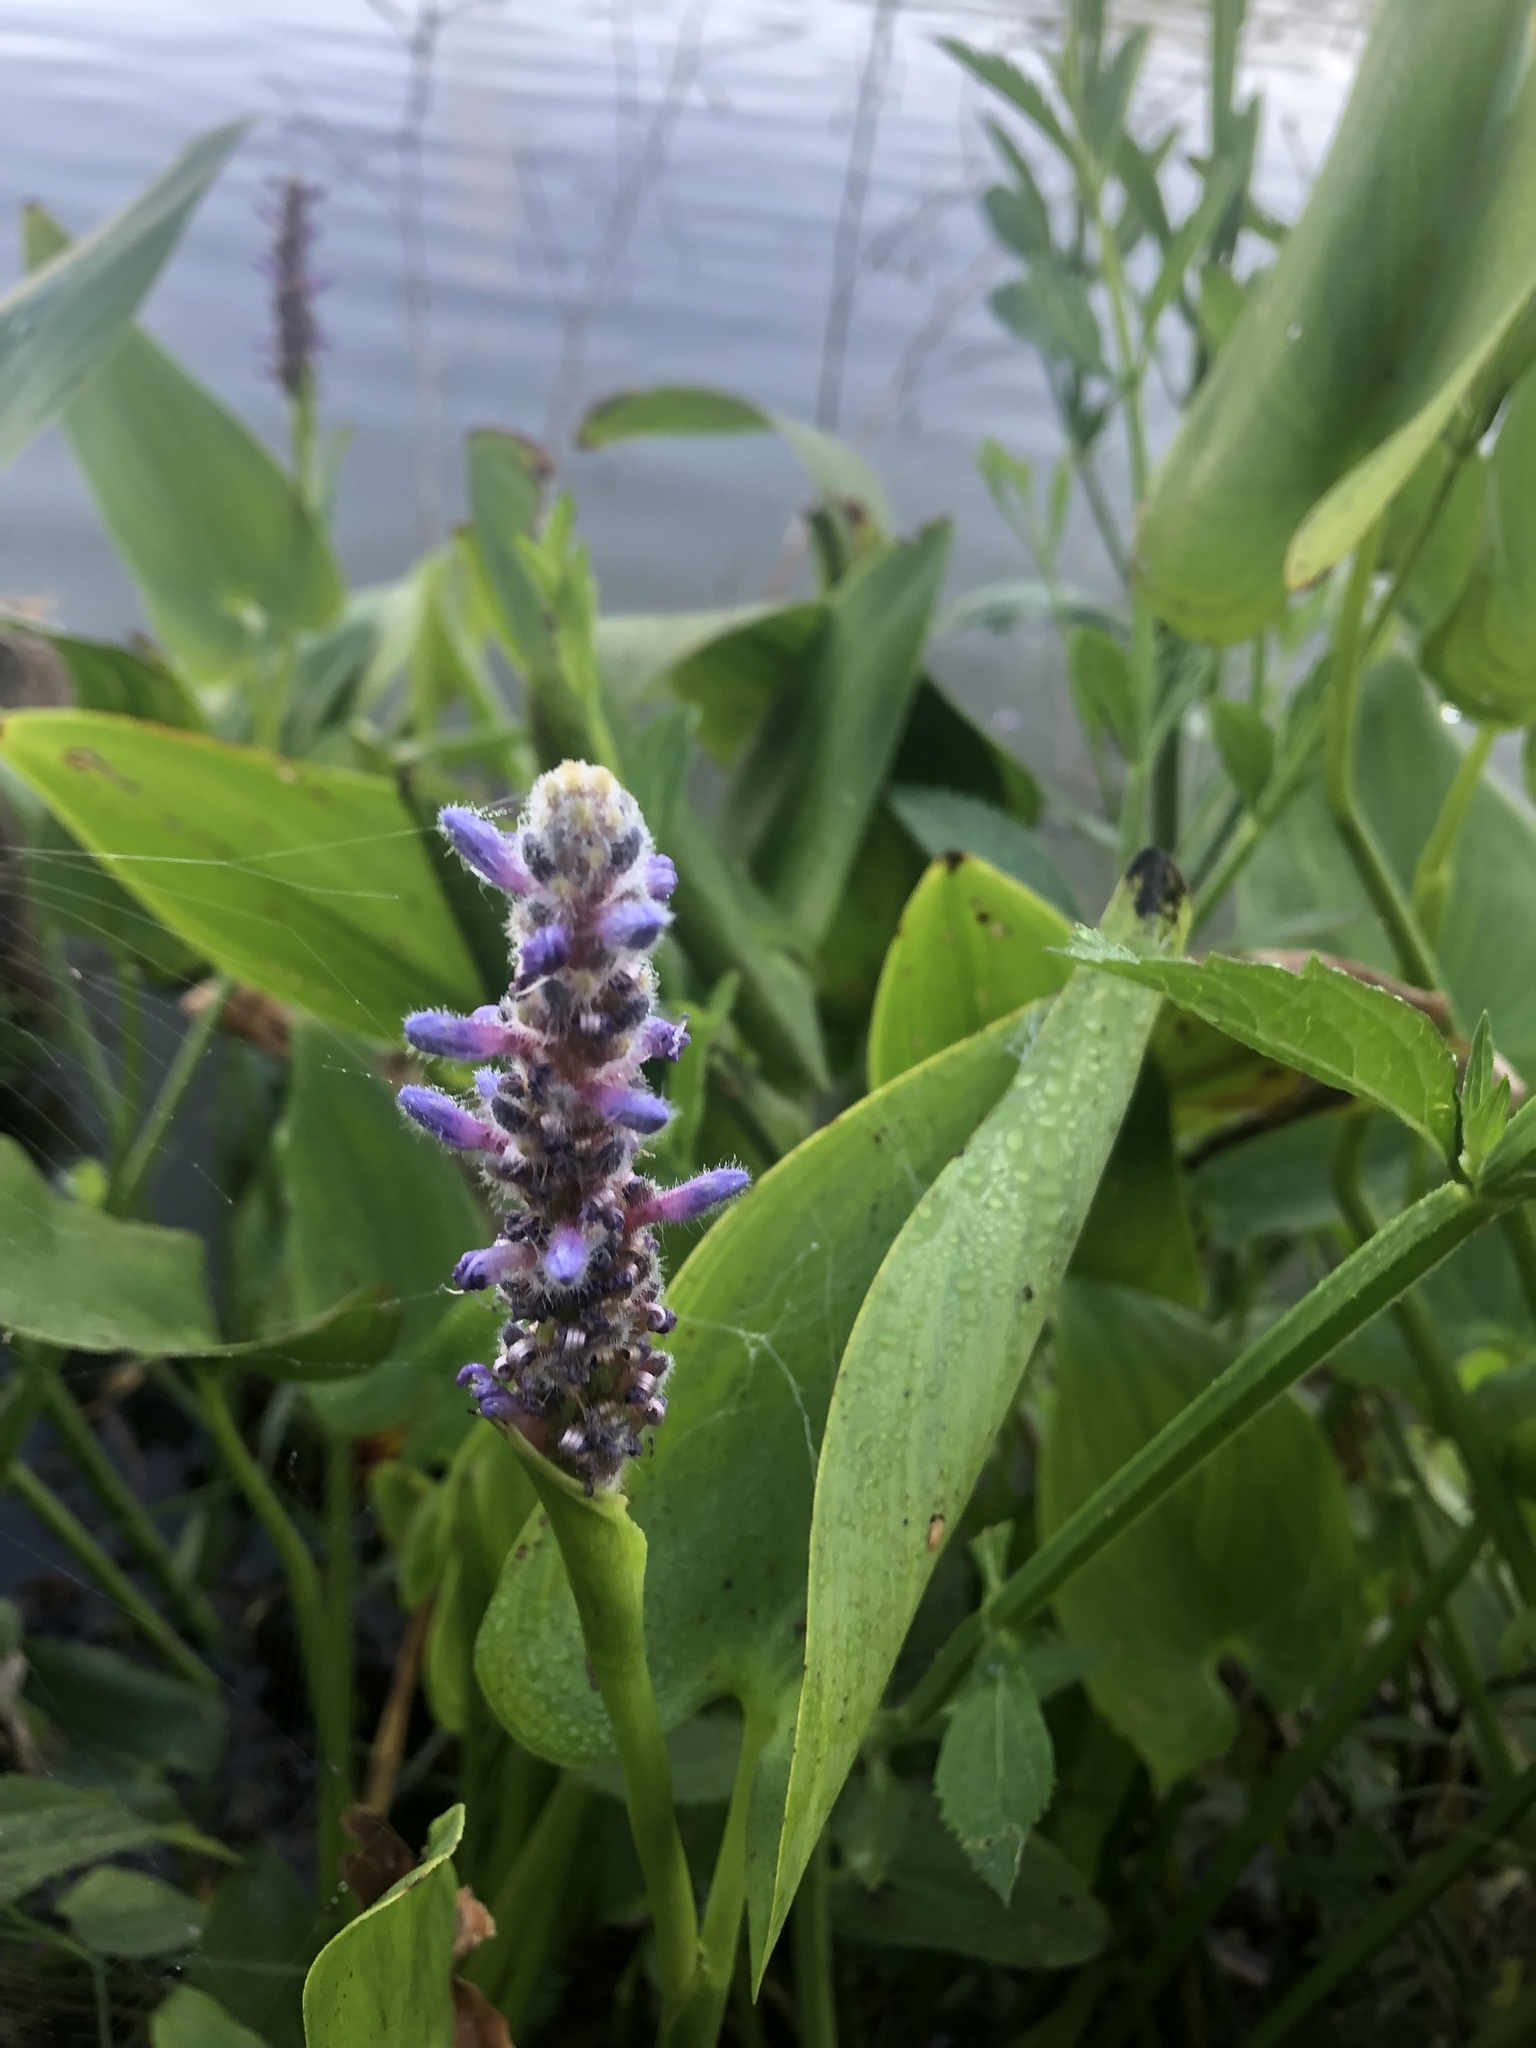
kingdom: Plantae
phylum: Tracheophyta
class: Liliopsida
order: Commelinales
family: Pontederiaceae
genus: Pontederia
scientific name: Pontederia cordata
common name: Pickerelweed
